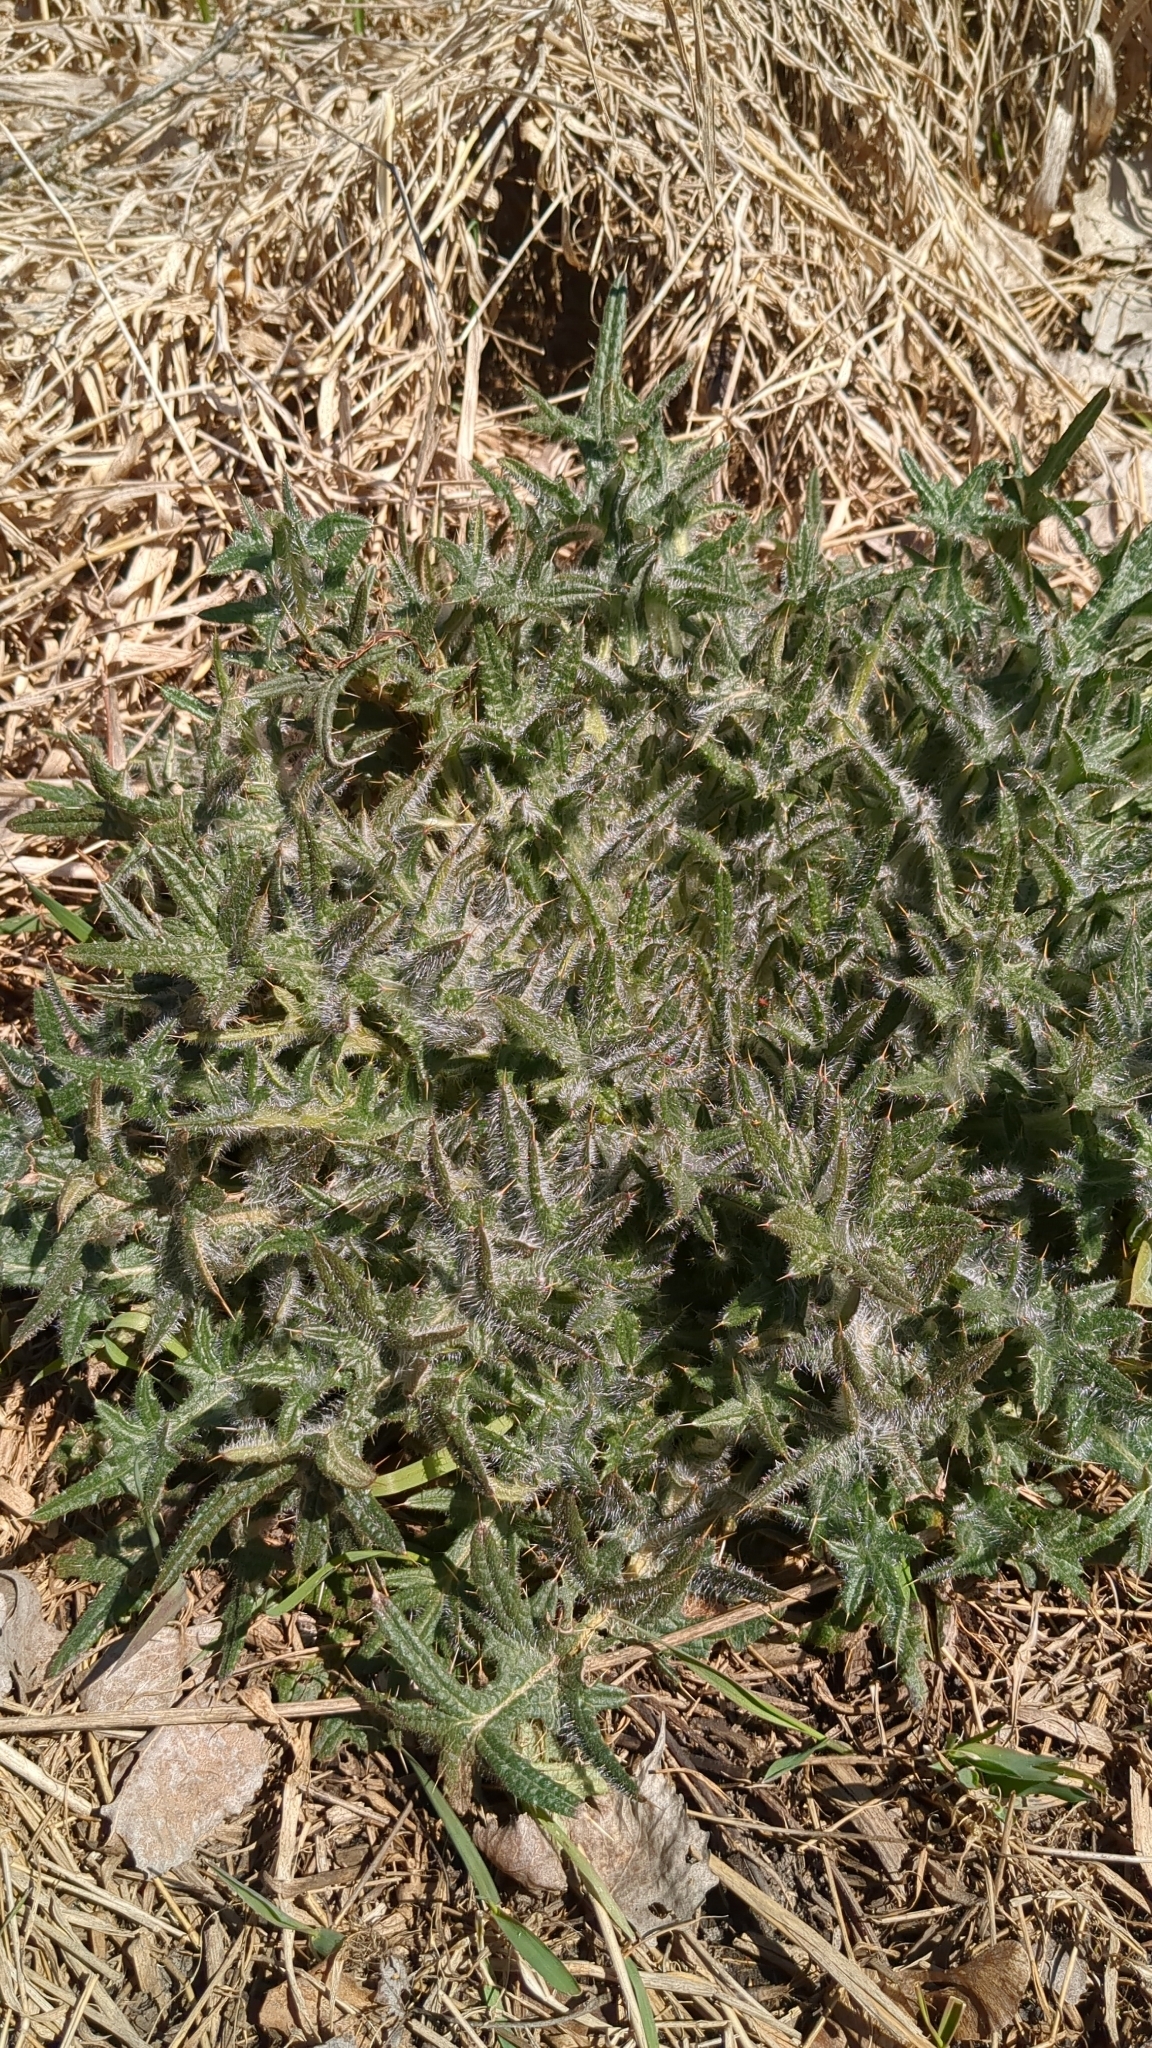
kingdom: Plantae
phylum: Tracheophyta
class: Magnoliopsida
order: Asterales
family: Asteraceae
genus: Cirsium
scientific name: Cirsium vulgare
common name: Bull thistle
